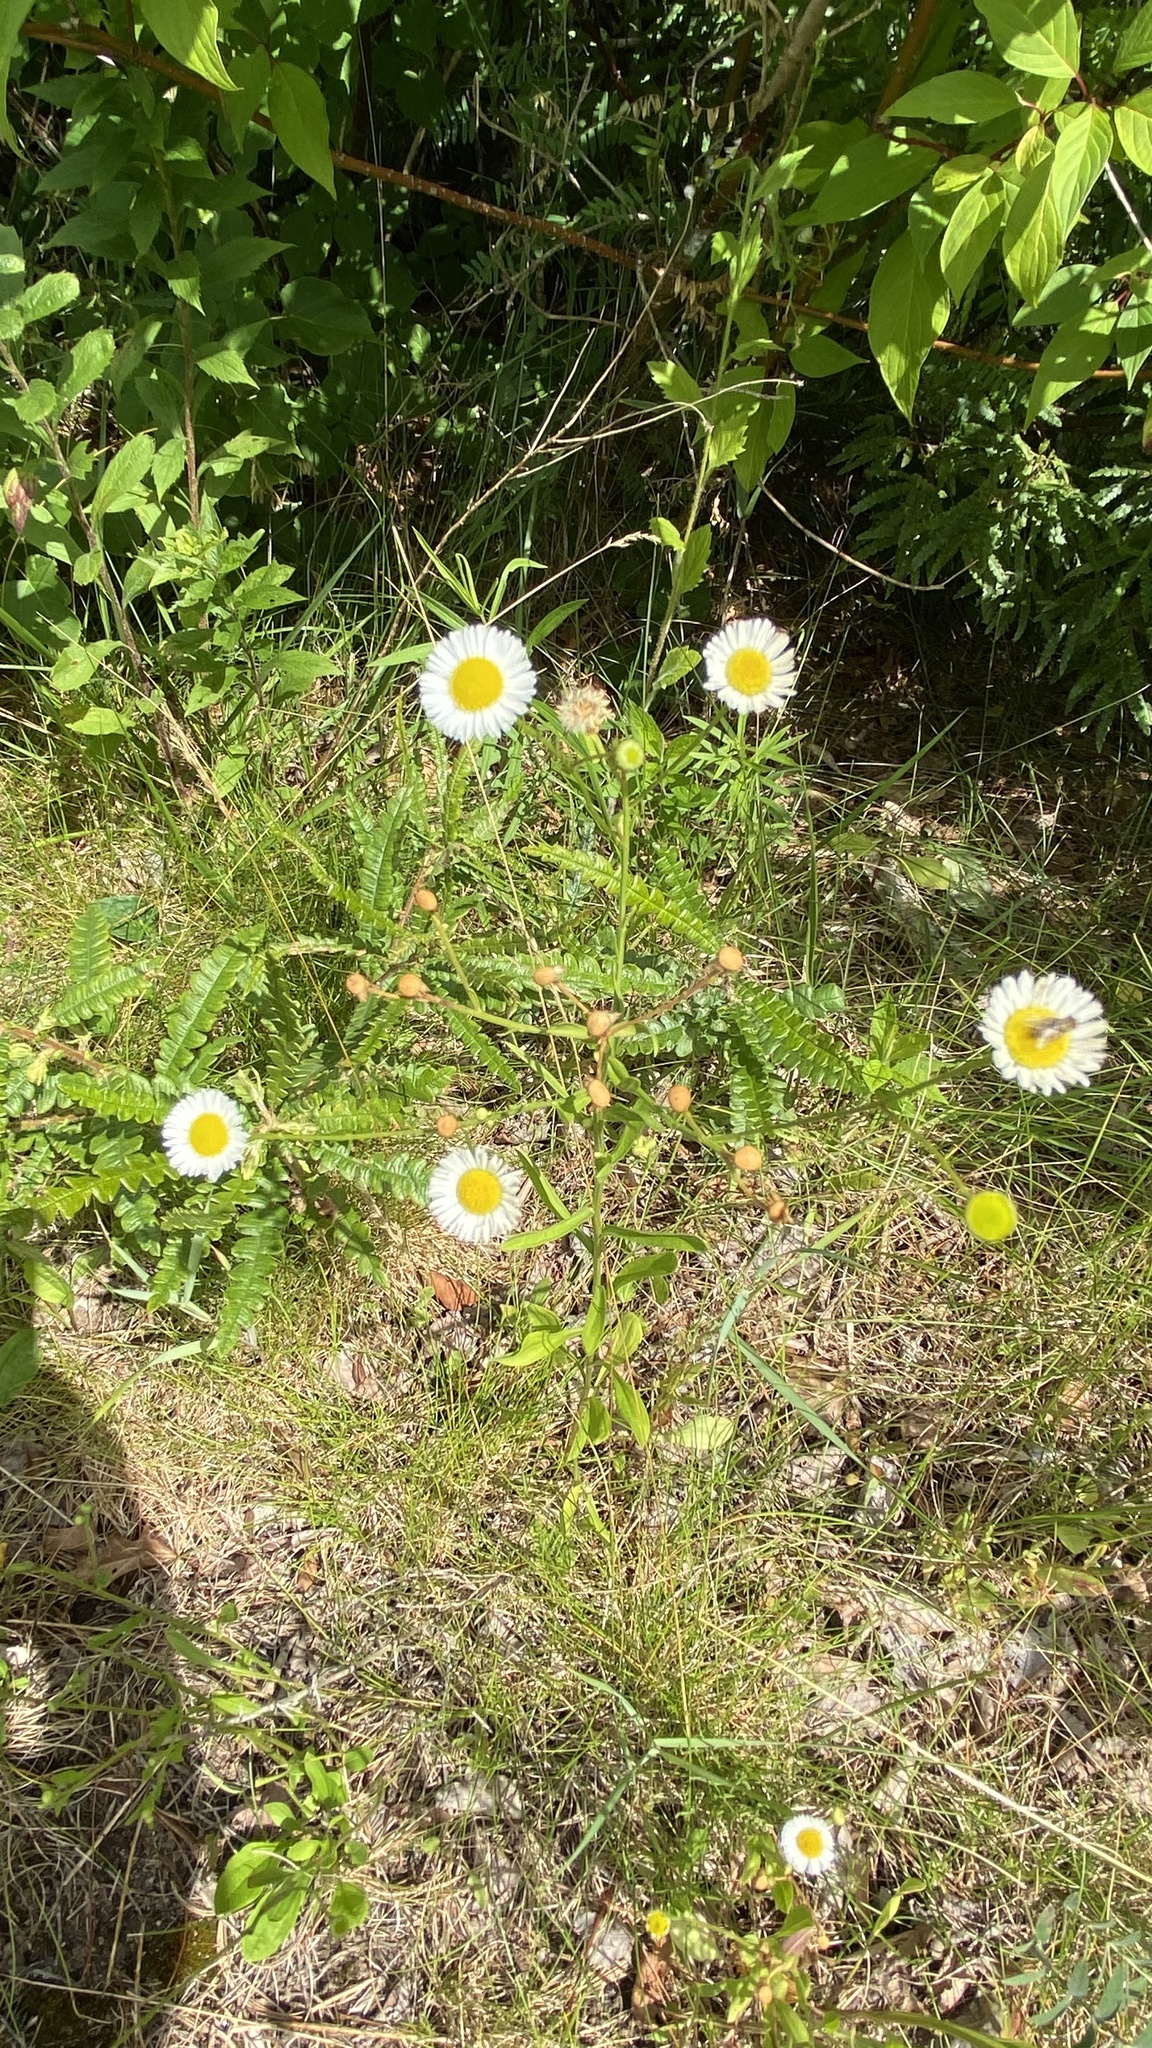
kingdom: Plantae
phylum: Tracheophyta
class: Magnoliopsida
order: Asterales
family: Asteraceae
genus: Leucanthemum
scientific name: Leucanthemum vulgare
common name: Oxeye daisy
